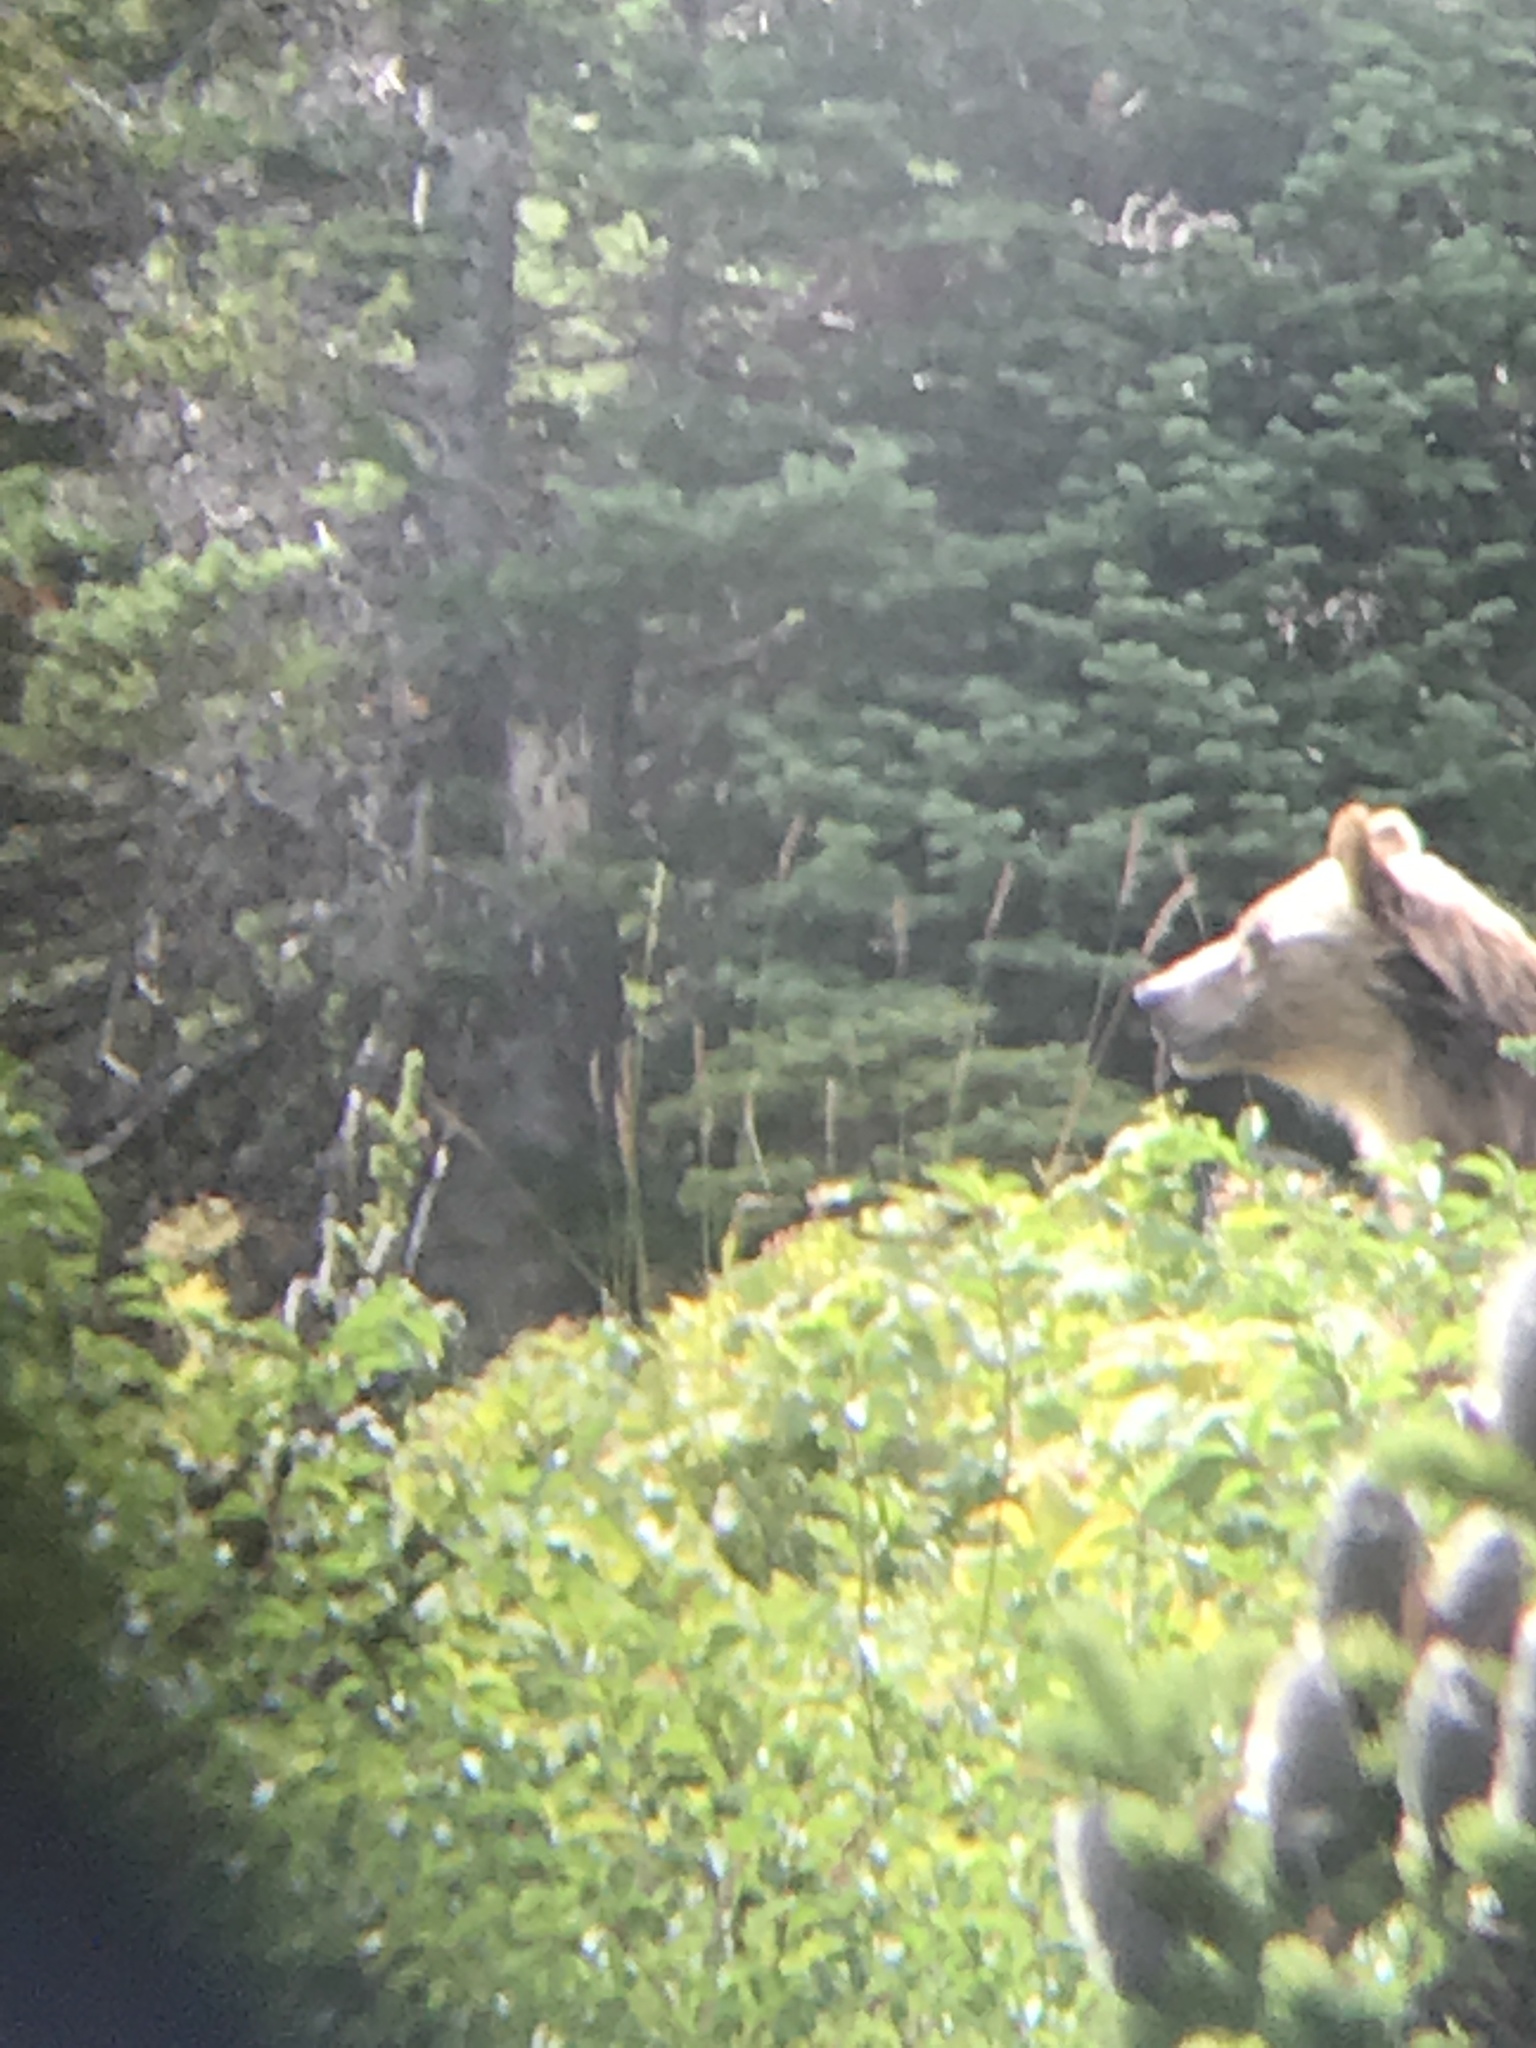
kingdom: Animalia
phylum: Chordata
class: Mammalia
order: Carnivora
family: Ursidae
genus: Ursus
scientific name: Ursus arctos
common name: Brown bear
